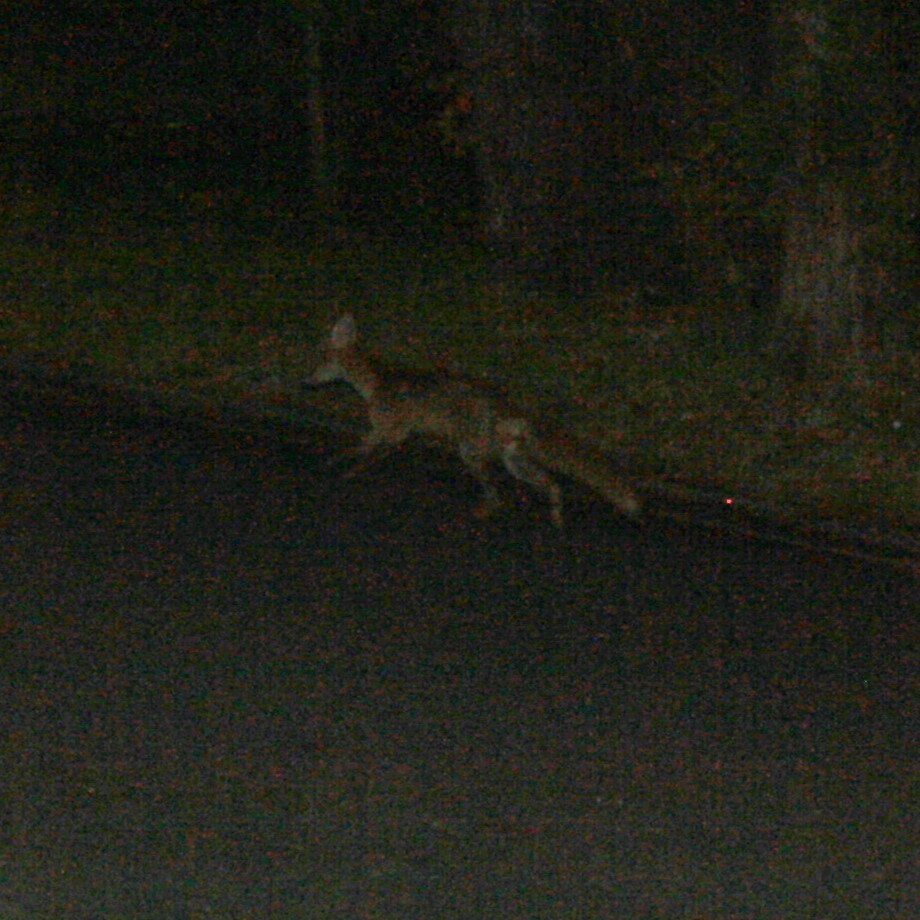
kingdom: Animalia
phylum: Chordata
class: Mammalia
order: Carnivora
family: Canidae
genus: Vulpes
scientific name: Vulpes vulpes
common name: Red fox
